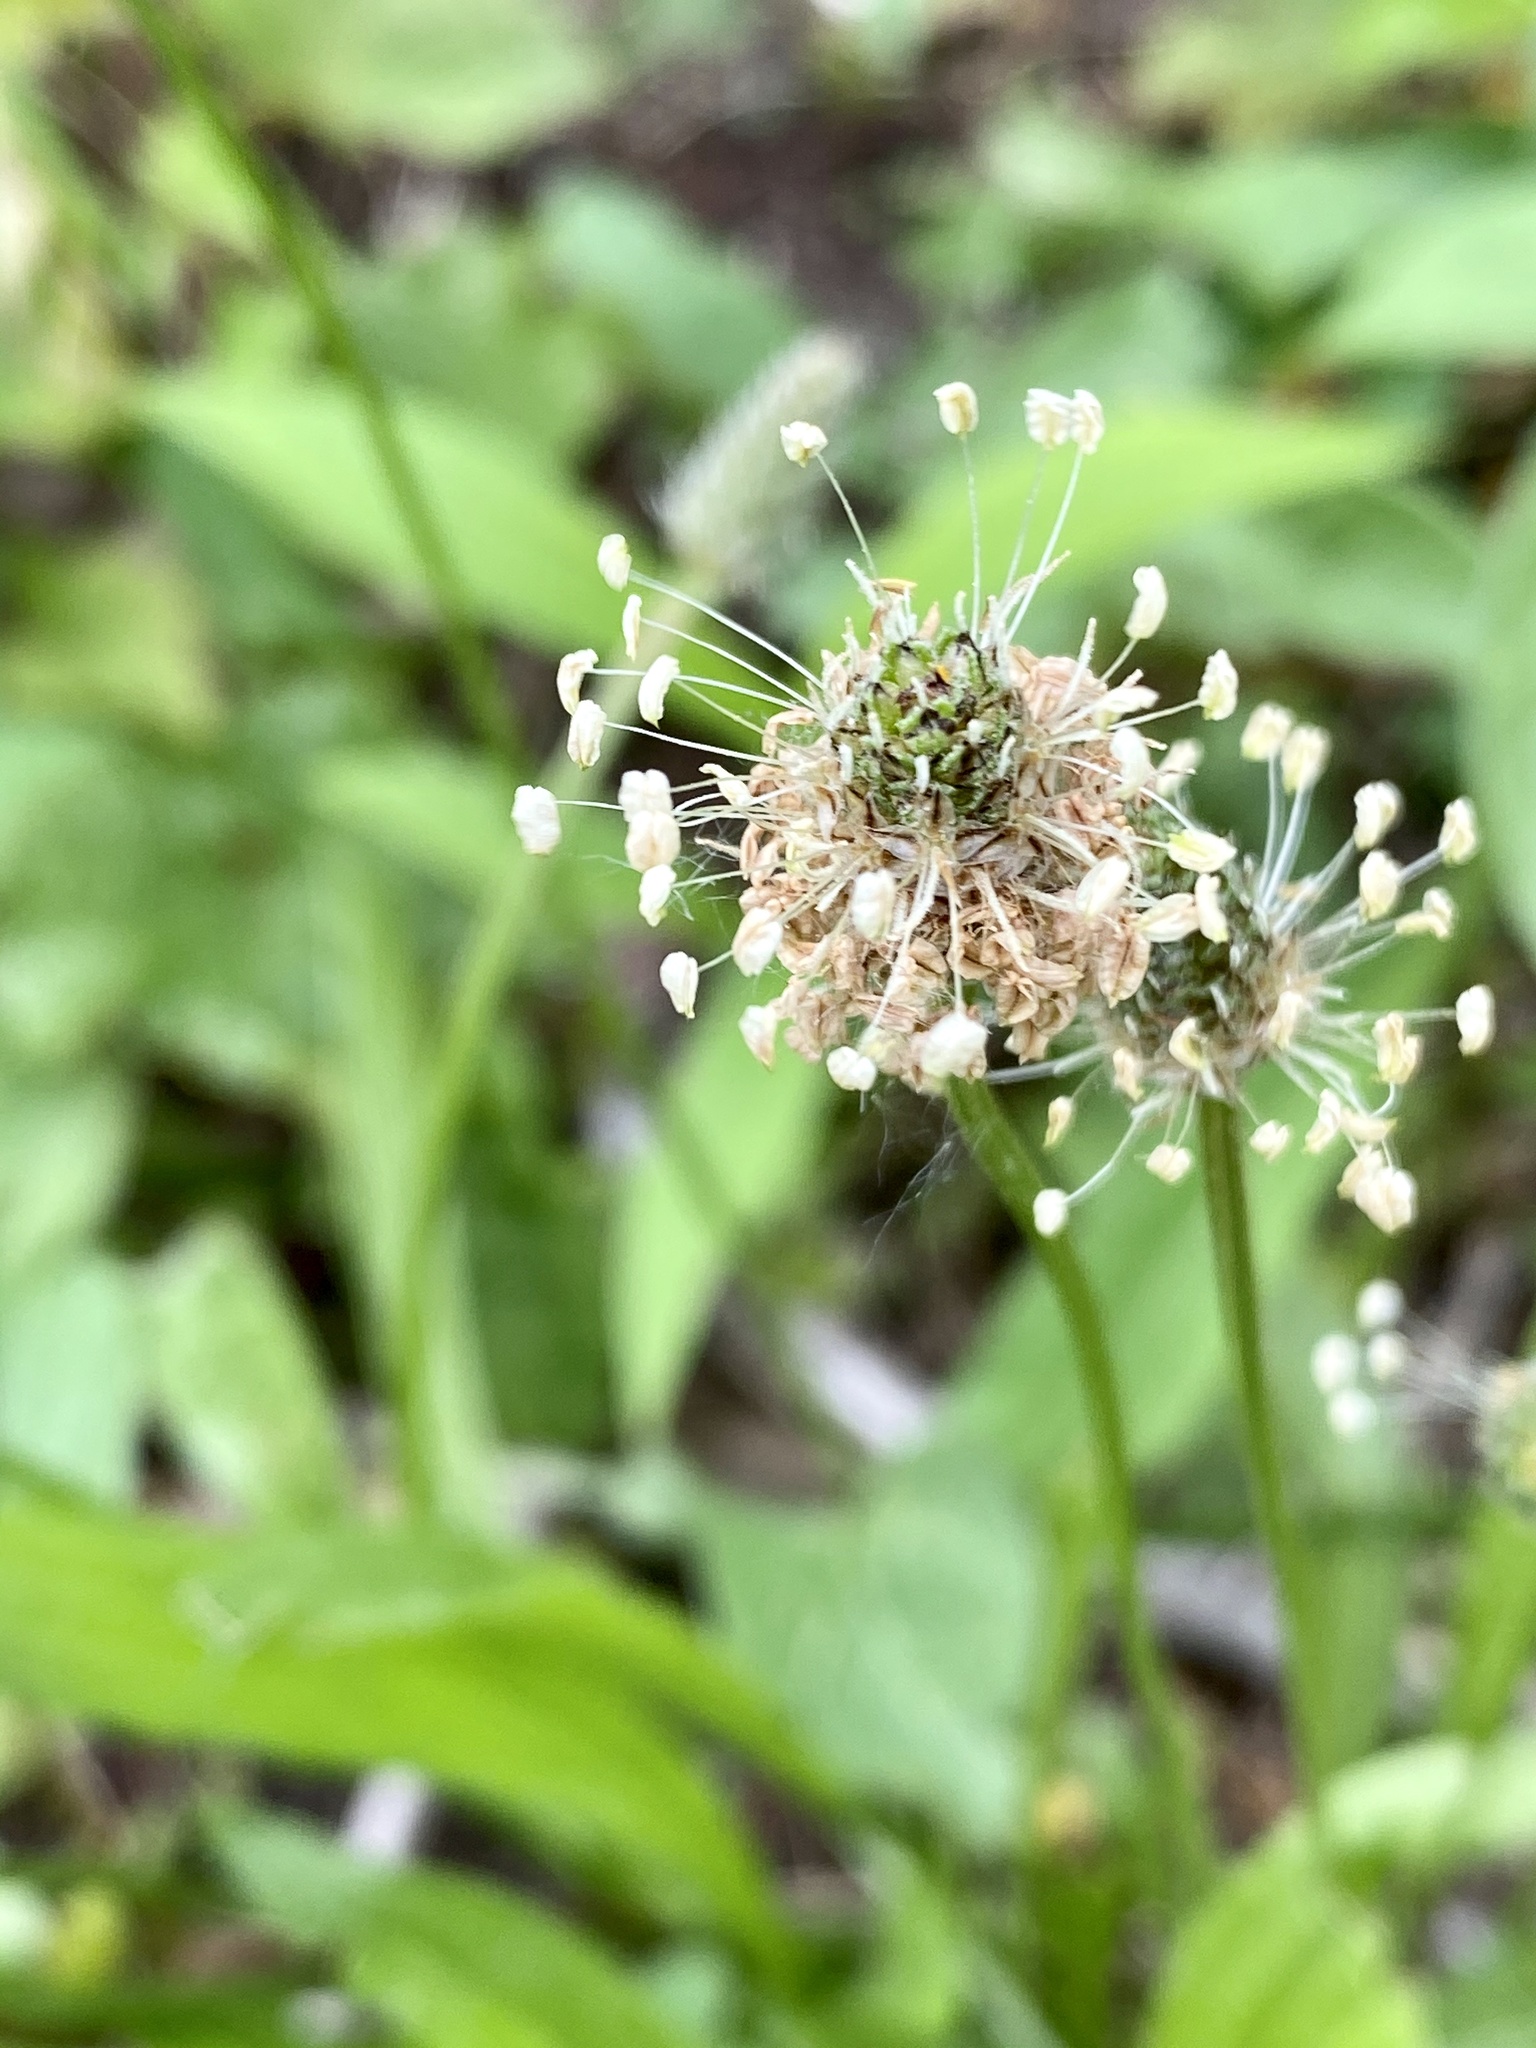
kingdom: Plantae
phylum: Tracheophyta
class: Magnoliopsida
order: Lamiales
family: Plantaginaceae
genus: Plantago
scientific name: Plantago lanceolata
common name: Ribwort plantain
